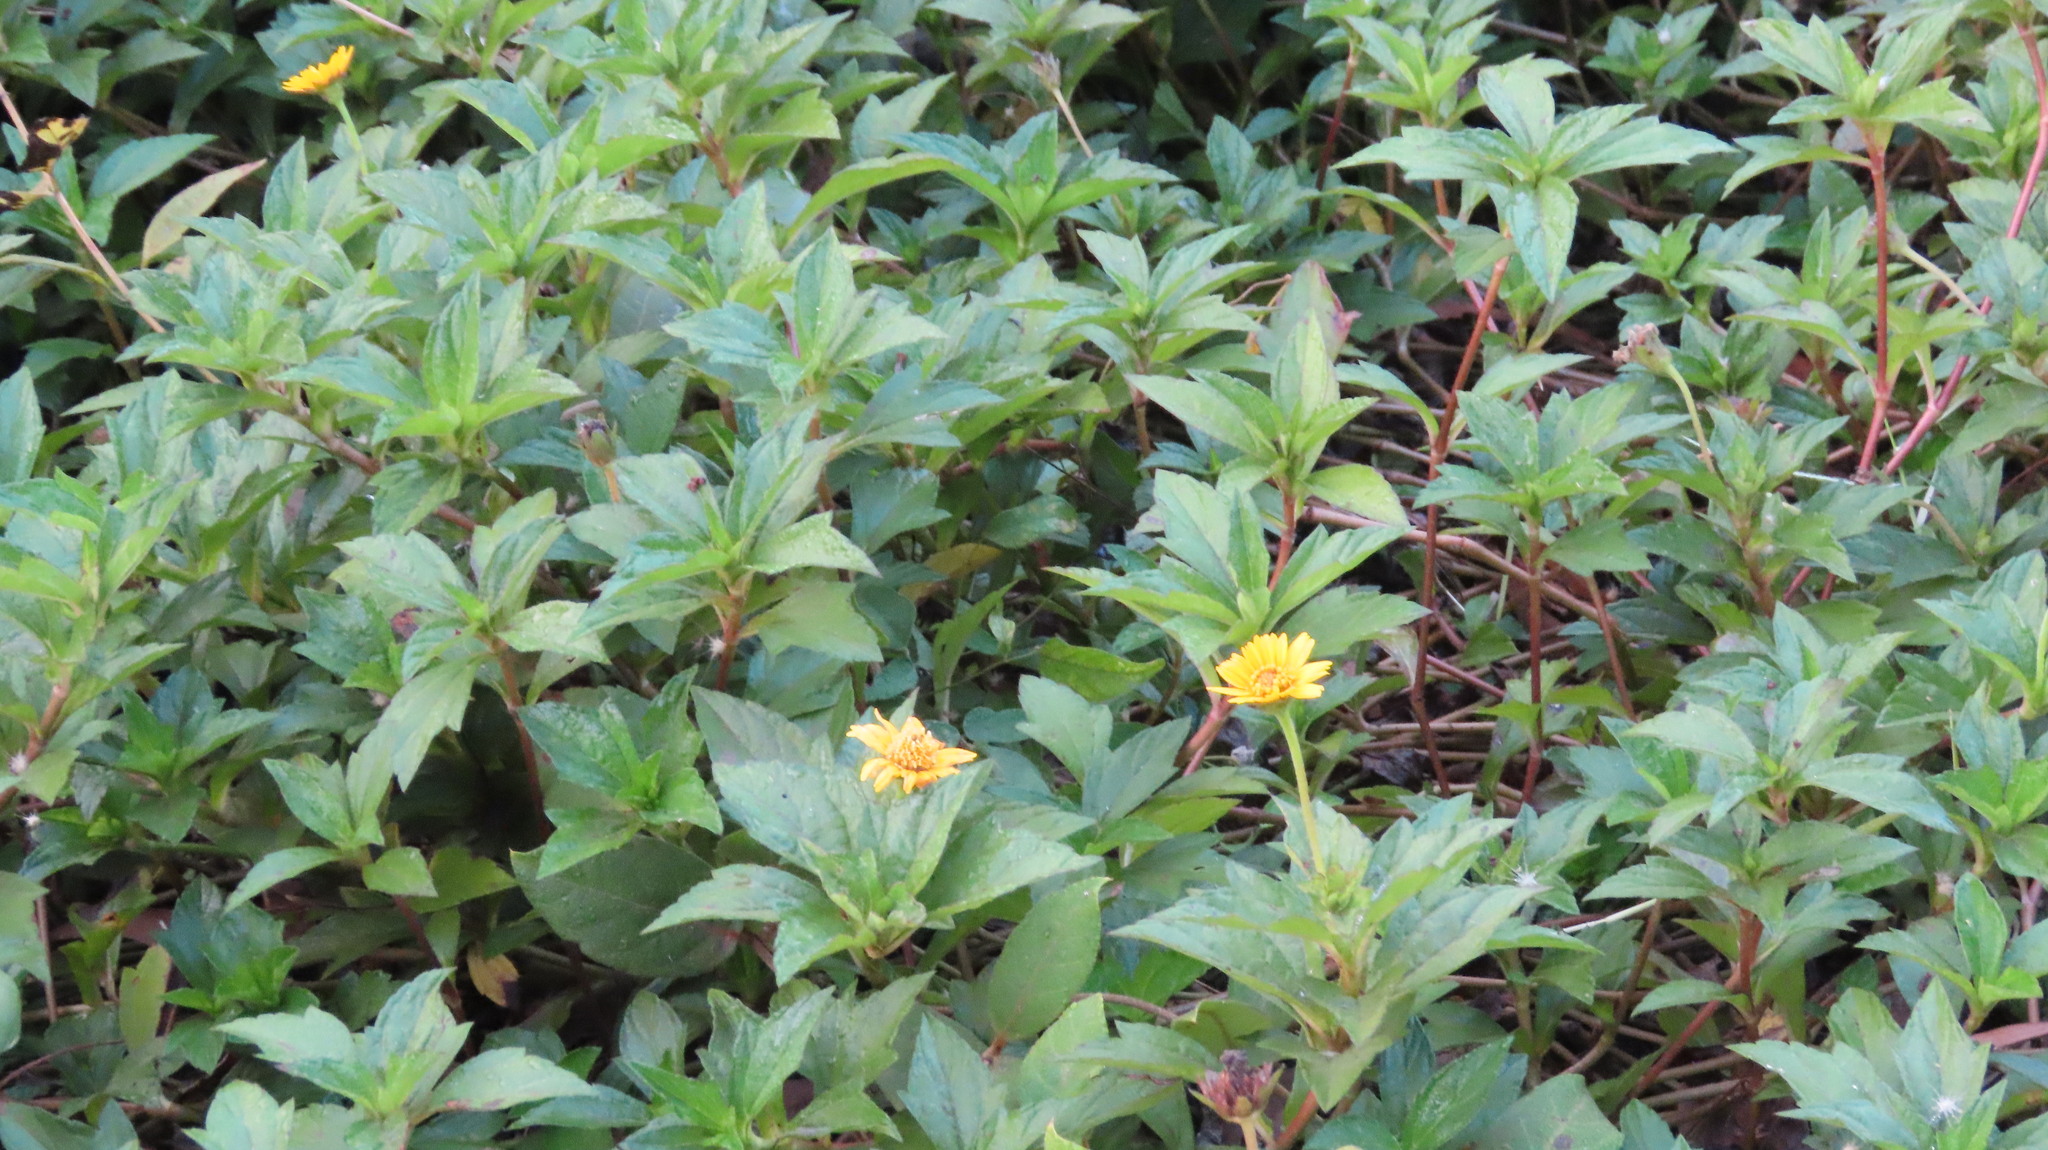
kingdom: Plantae
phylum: Tracheophyta
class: Magnoliopsida
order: Asterales
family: Asteraceae
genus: Sphagneticola
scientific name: Sphagneticola trilobata
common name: Bay biscayne creeping-oxeye
